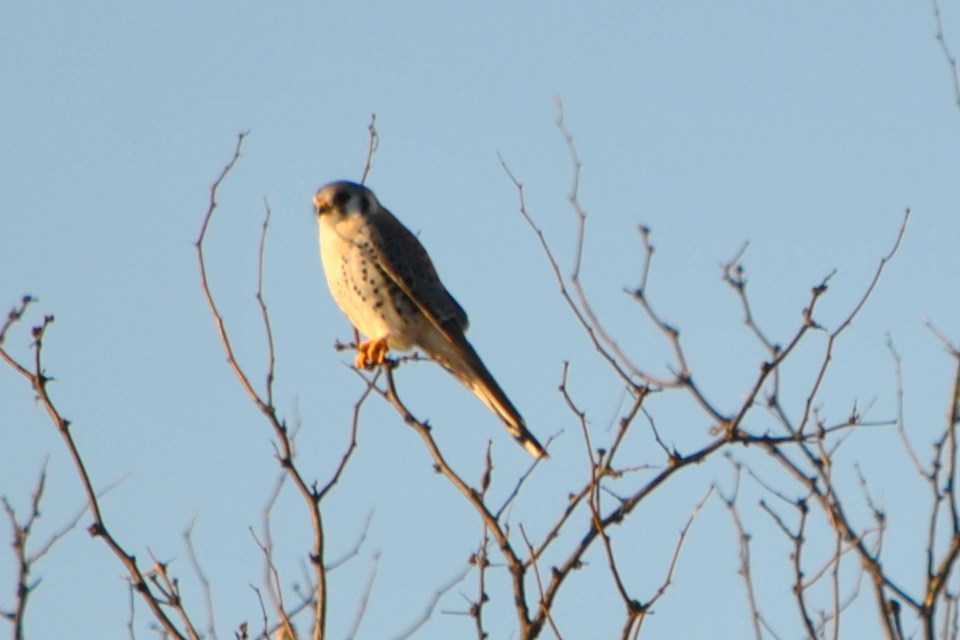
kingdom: Animalia
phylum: Chordata
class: Aves
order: Falconiformes
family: Falconidae
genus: Falco
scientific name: Falco sparverius
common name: American kestrel
